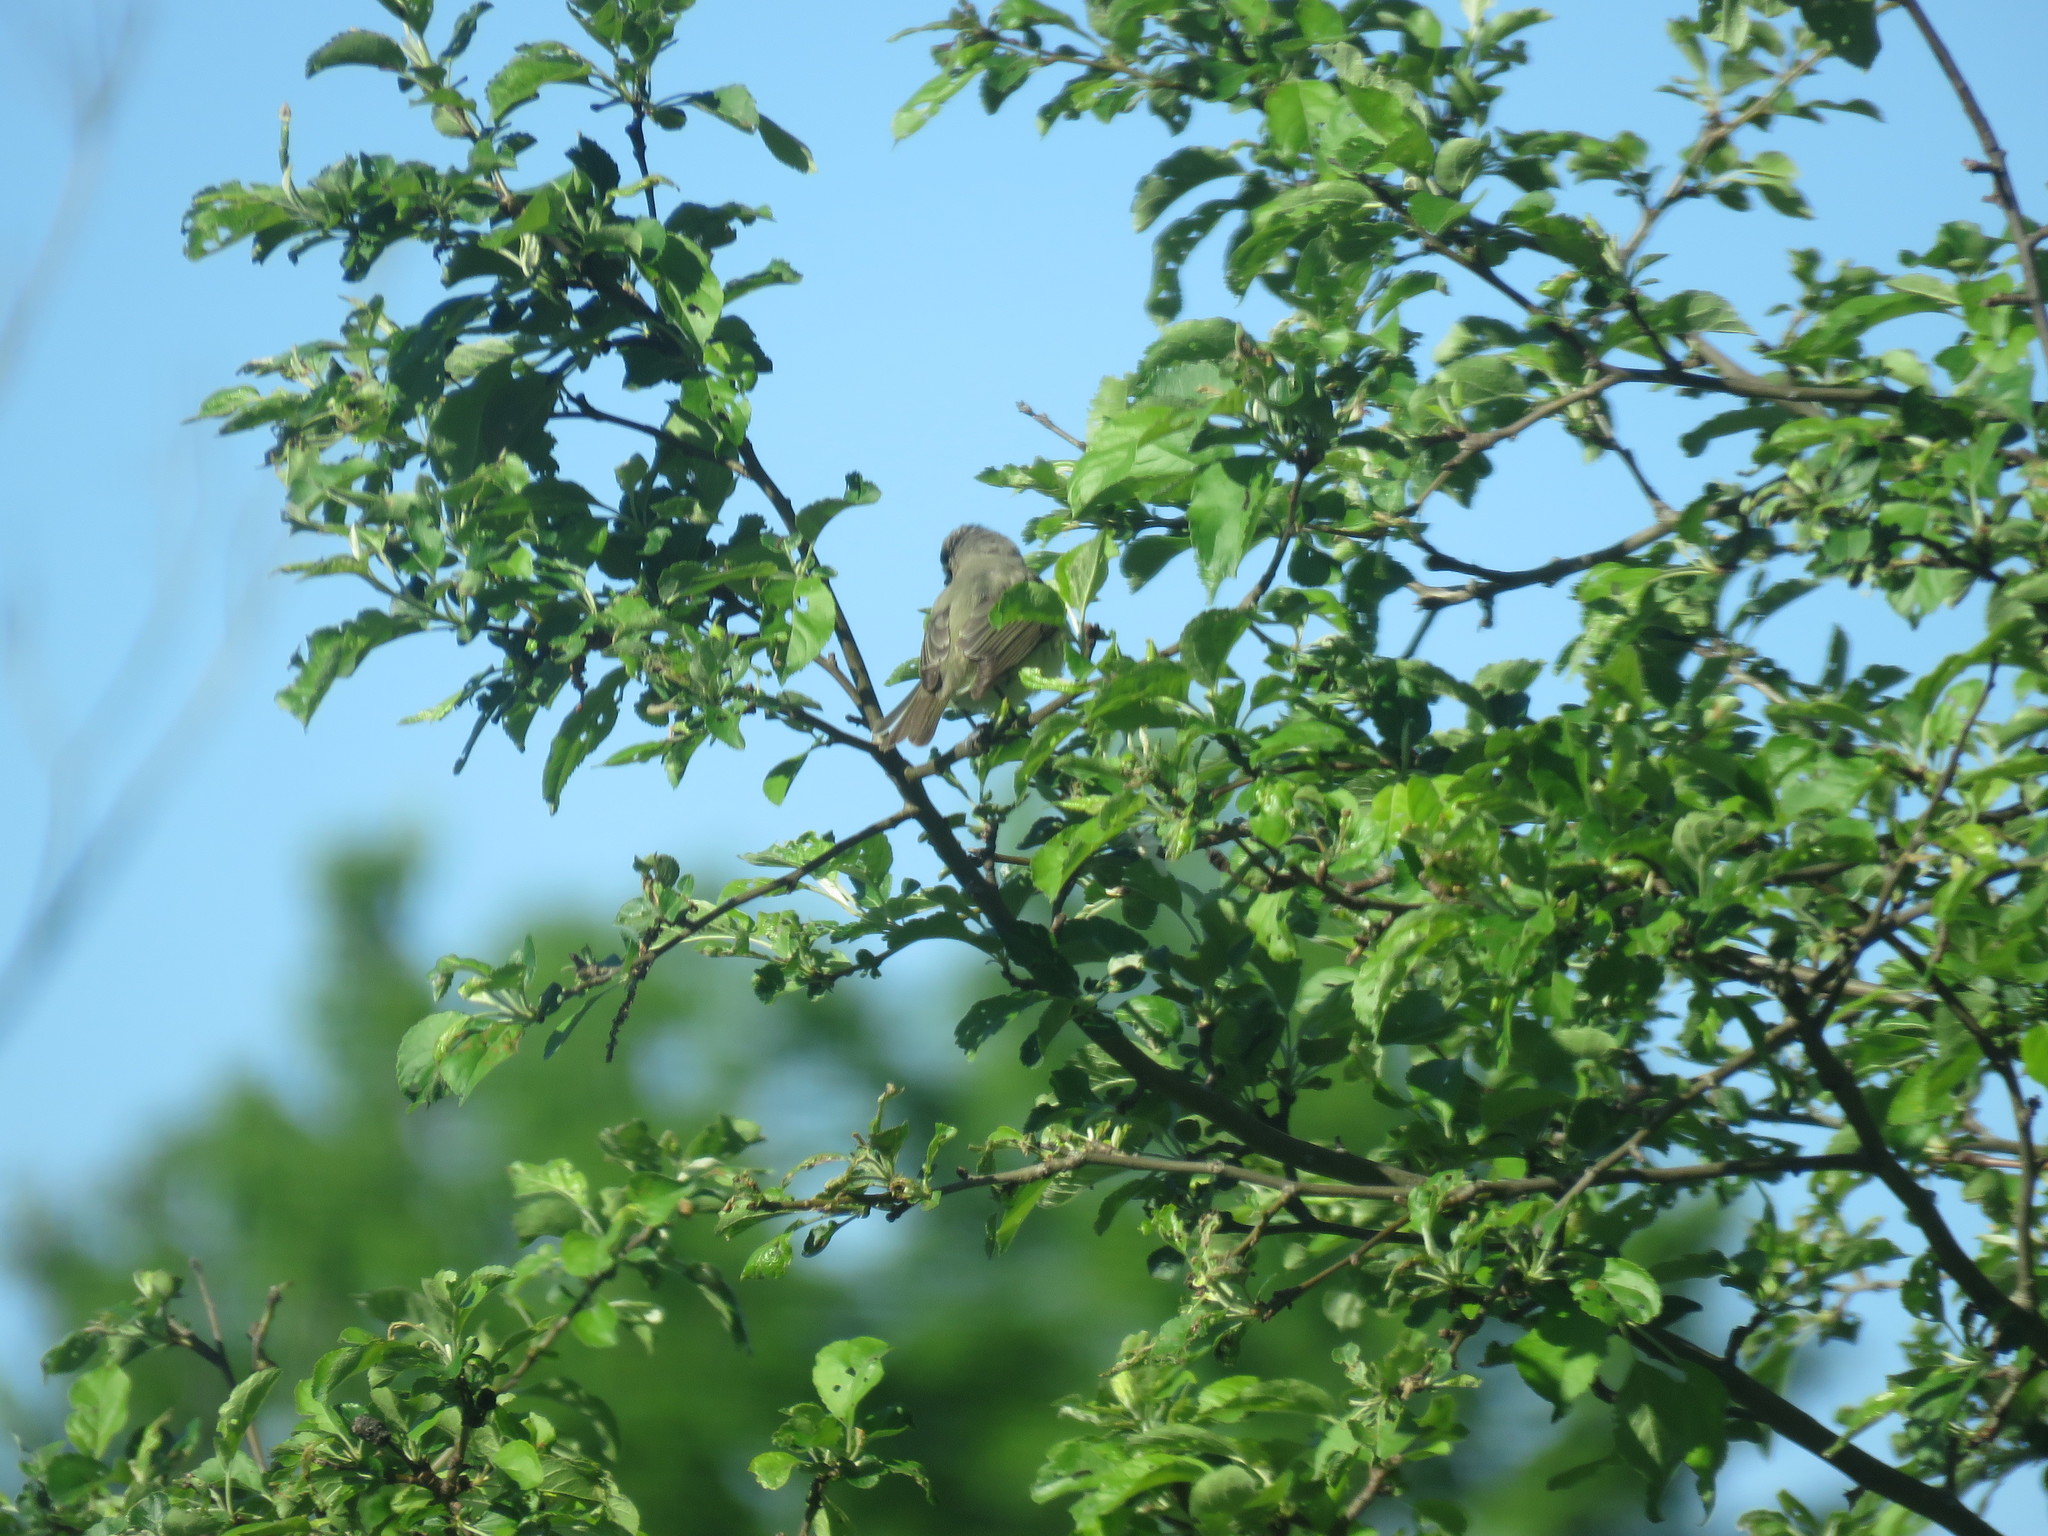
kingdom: Animalia
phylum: Chordata
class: Aves
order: Passeriformes
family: Vireonidae
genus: Vireo
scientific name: Vireo gilvus
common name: Warbling vireo
